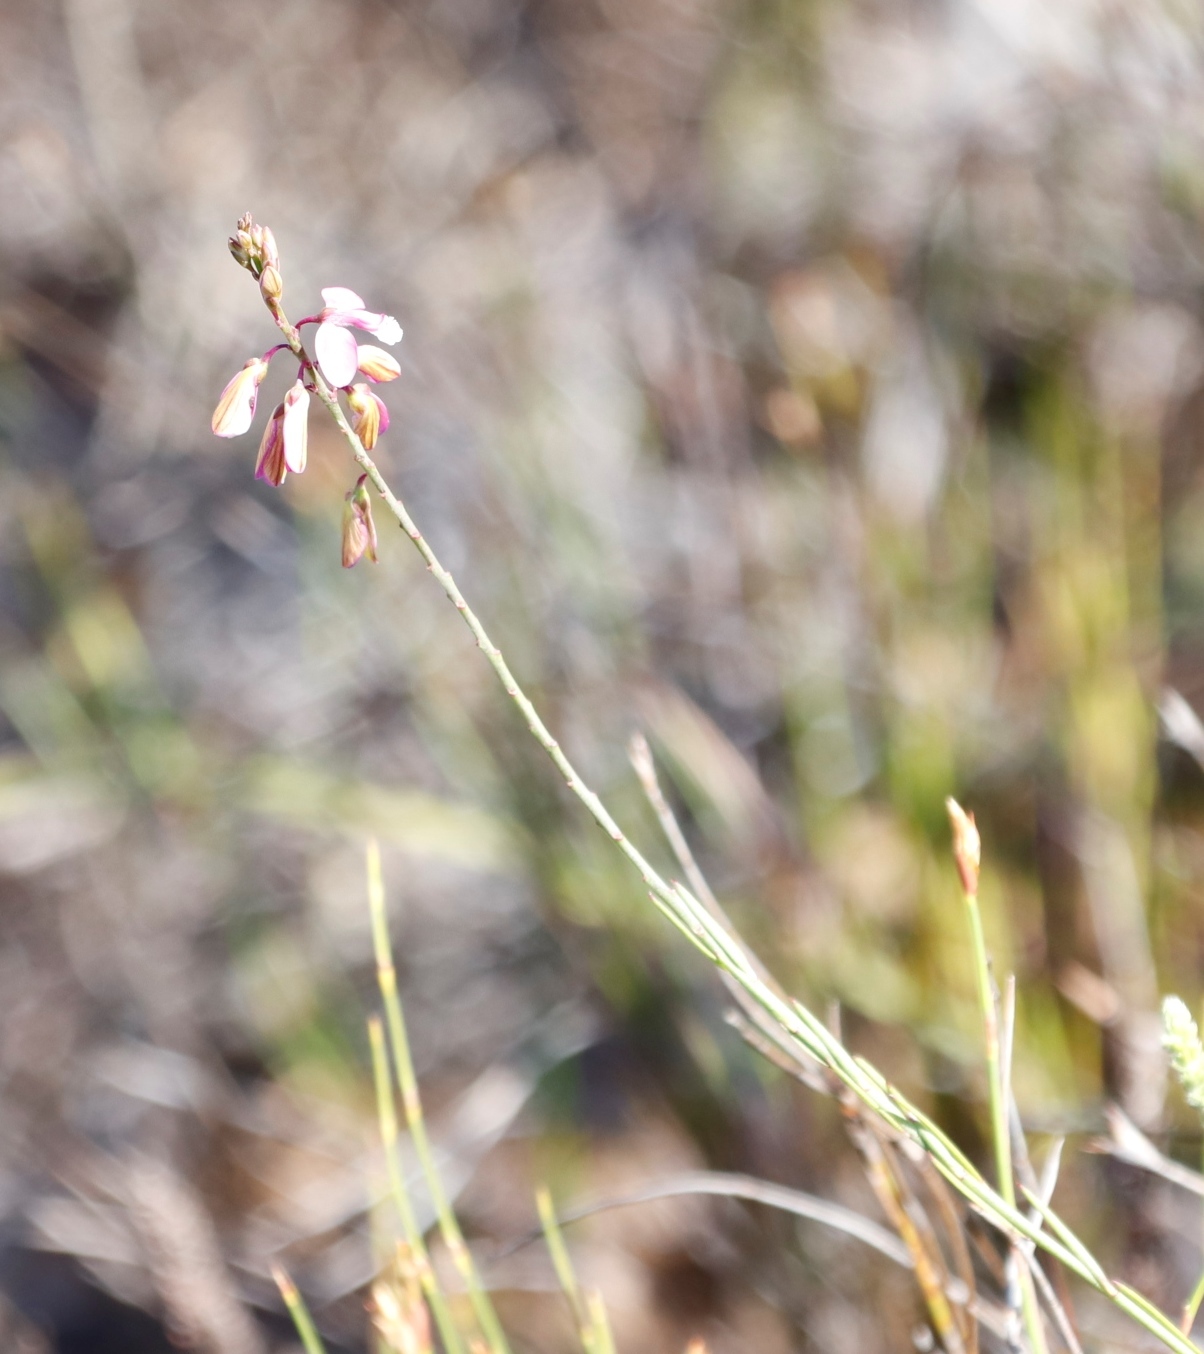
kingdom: Plantae
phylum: Tracheophyta
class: Magnoliopsida
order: Fabales
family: Polygalaceae
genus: Polygala
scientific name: Polygala garcini
